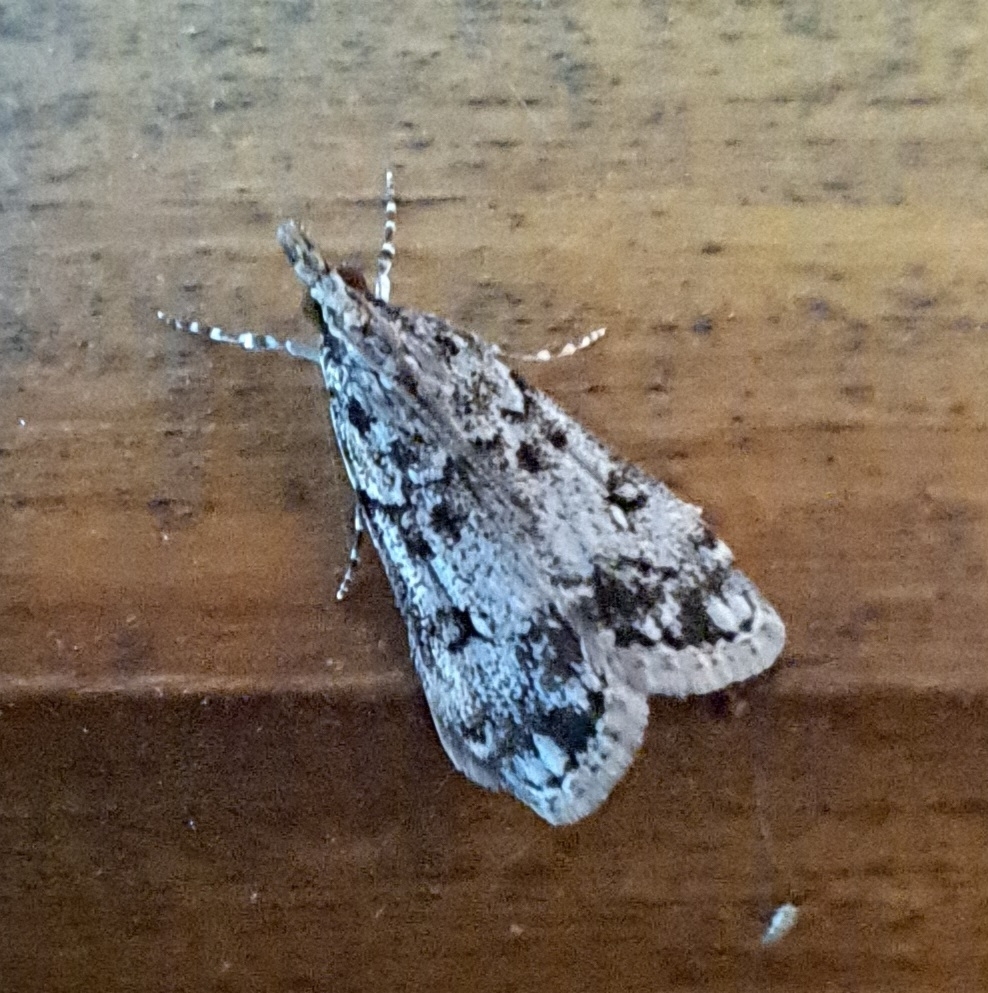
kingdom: Animalia
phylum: Arthropoda
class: Insecta
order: Lepidoptera
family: Crambidae
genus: Eudonia
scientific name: Eudonia lacustrata
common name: Little grey
